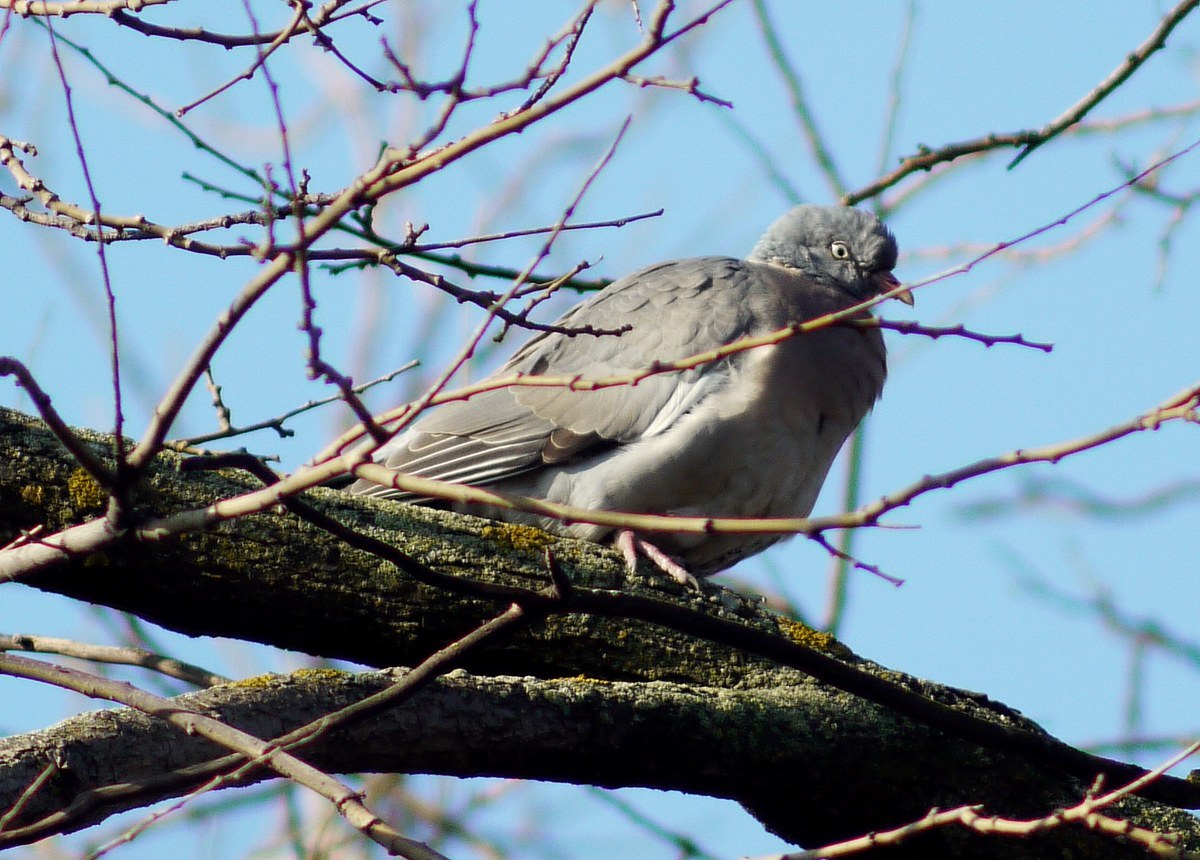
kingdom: Animalia
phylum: Chordata
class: Aves
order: Columbiformes
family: Columbidae
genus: Columba
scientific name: Columba palumbus
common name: Common wood pigeon
